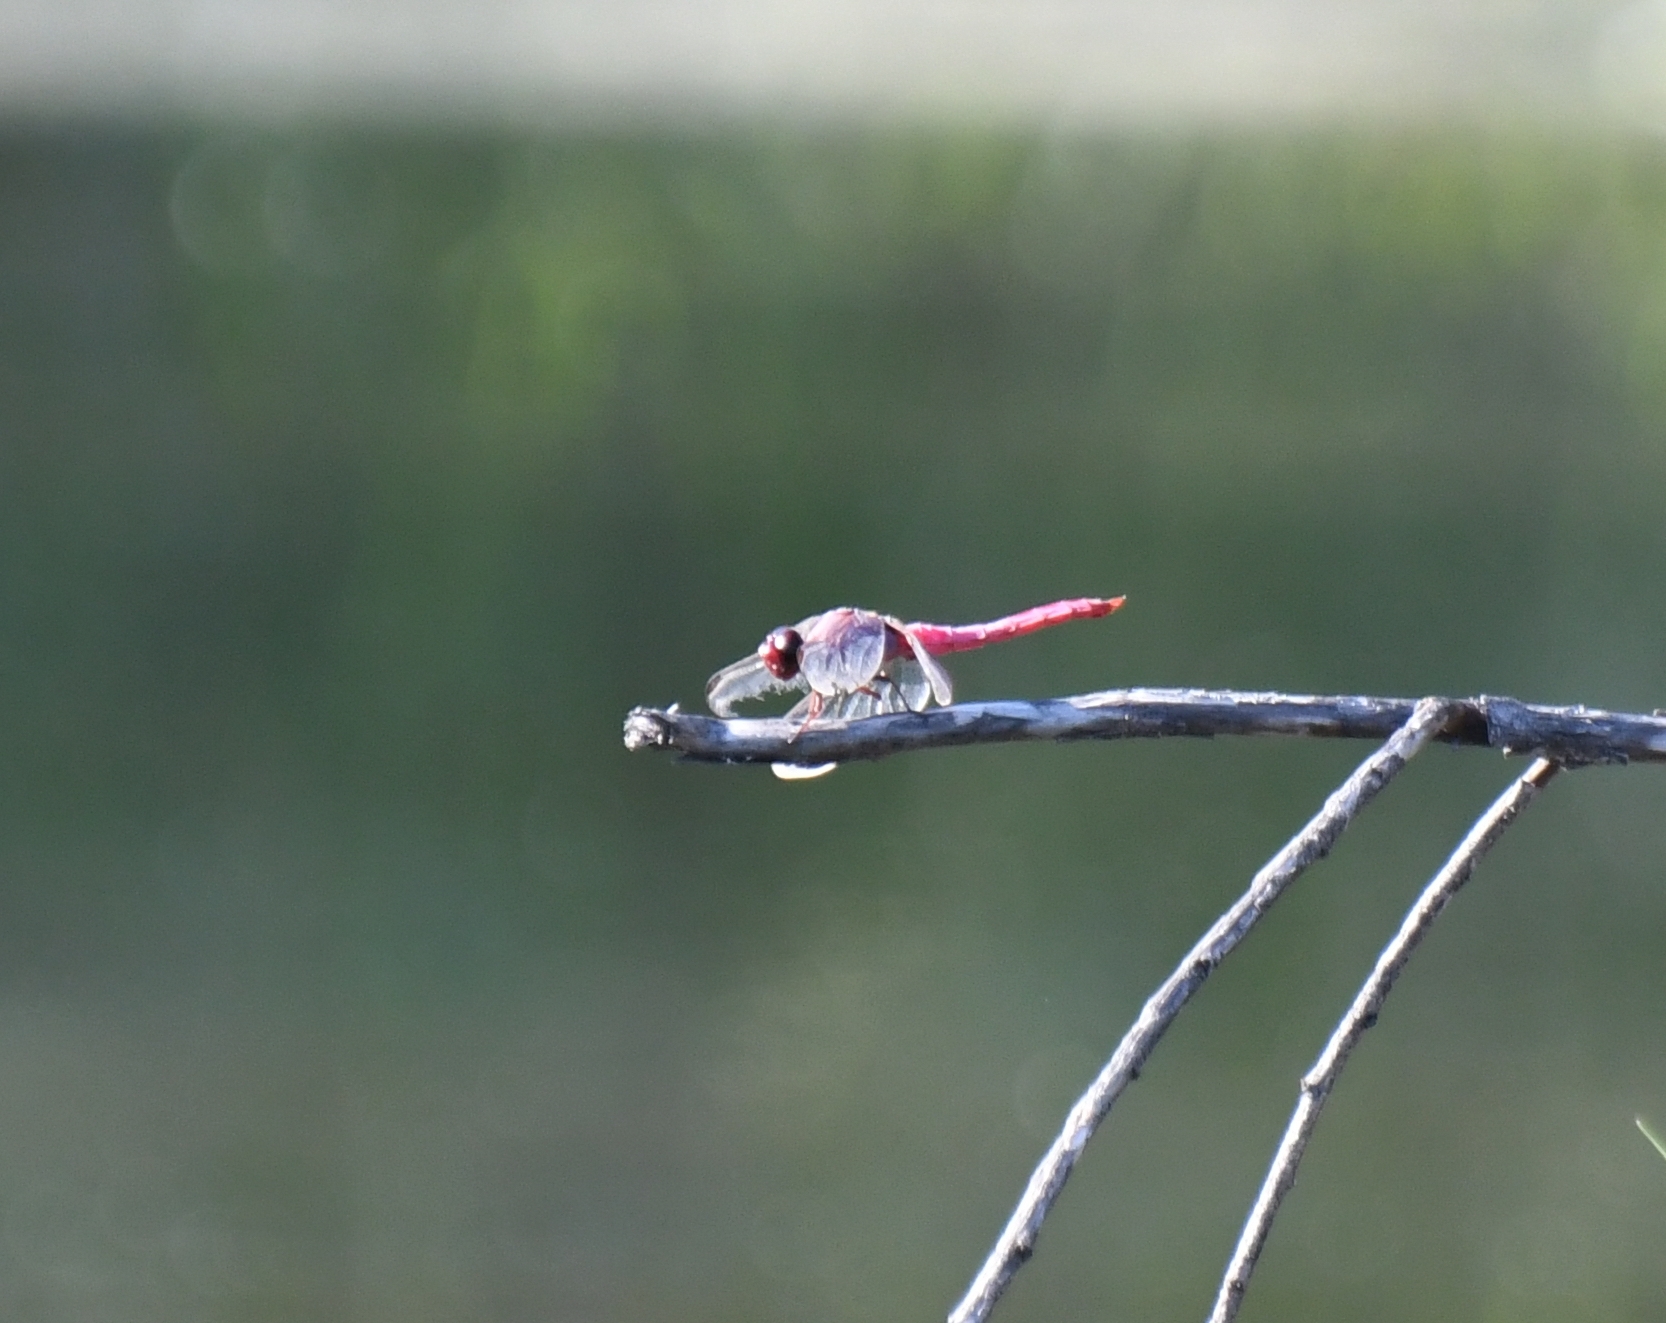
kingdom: Animalia
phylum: Arthropoda
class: Insecta
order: Odonata
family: Libellulidae
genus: Orthemis
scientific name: Orthemis ferruginea
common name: Roseate skimmer
